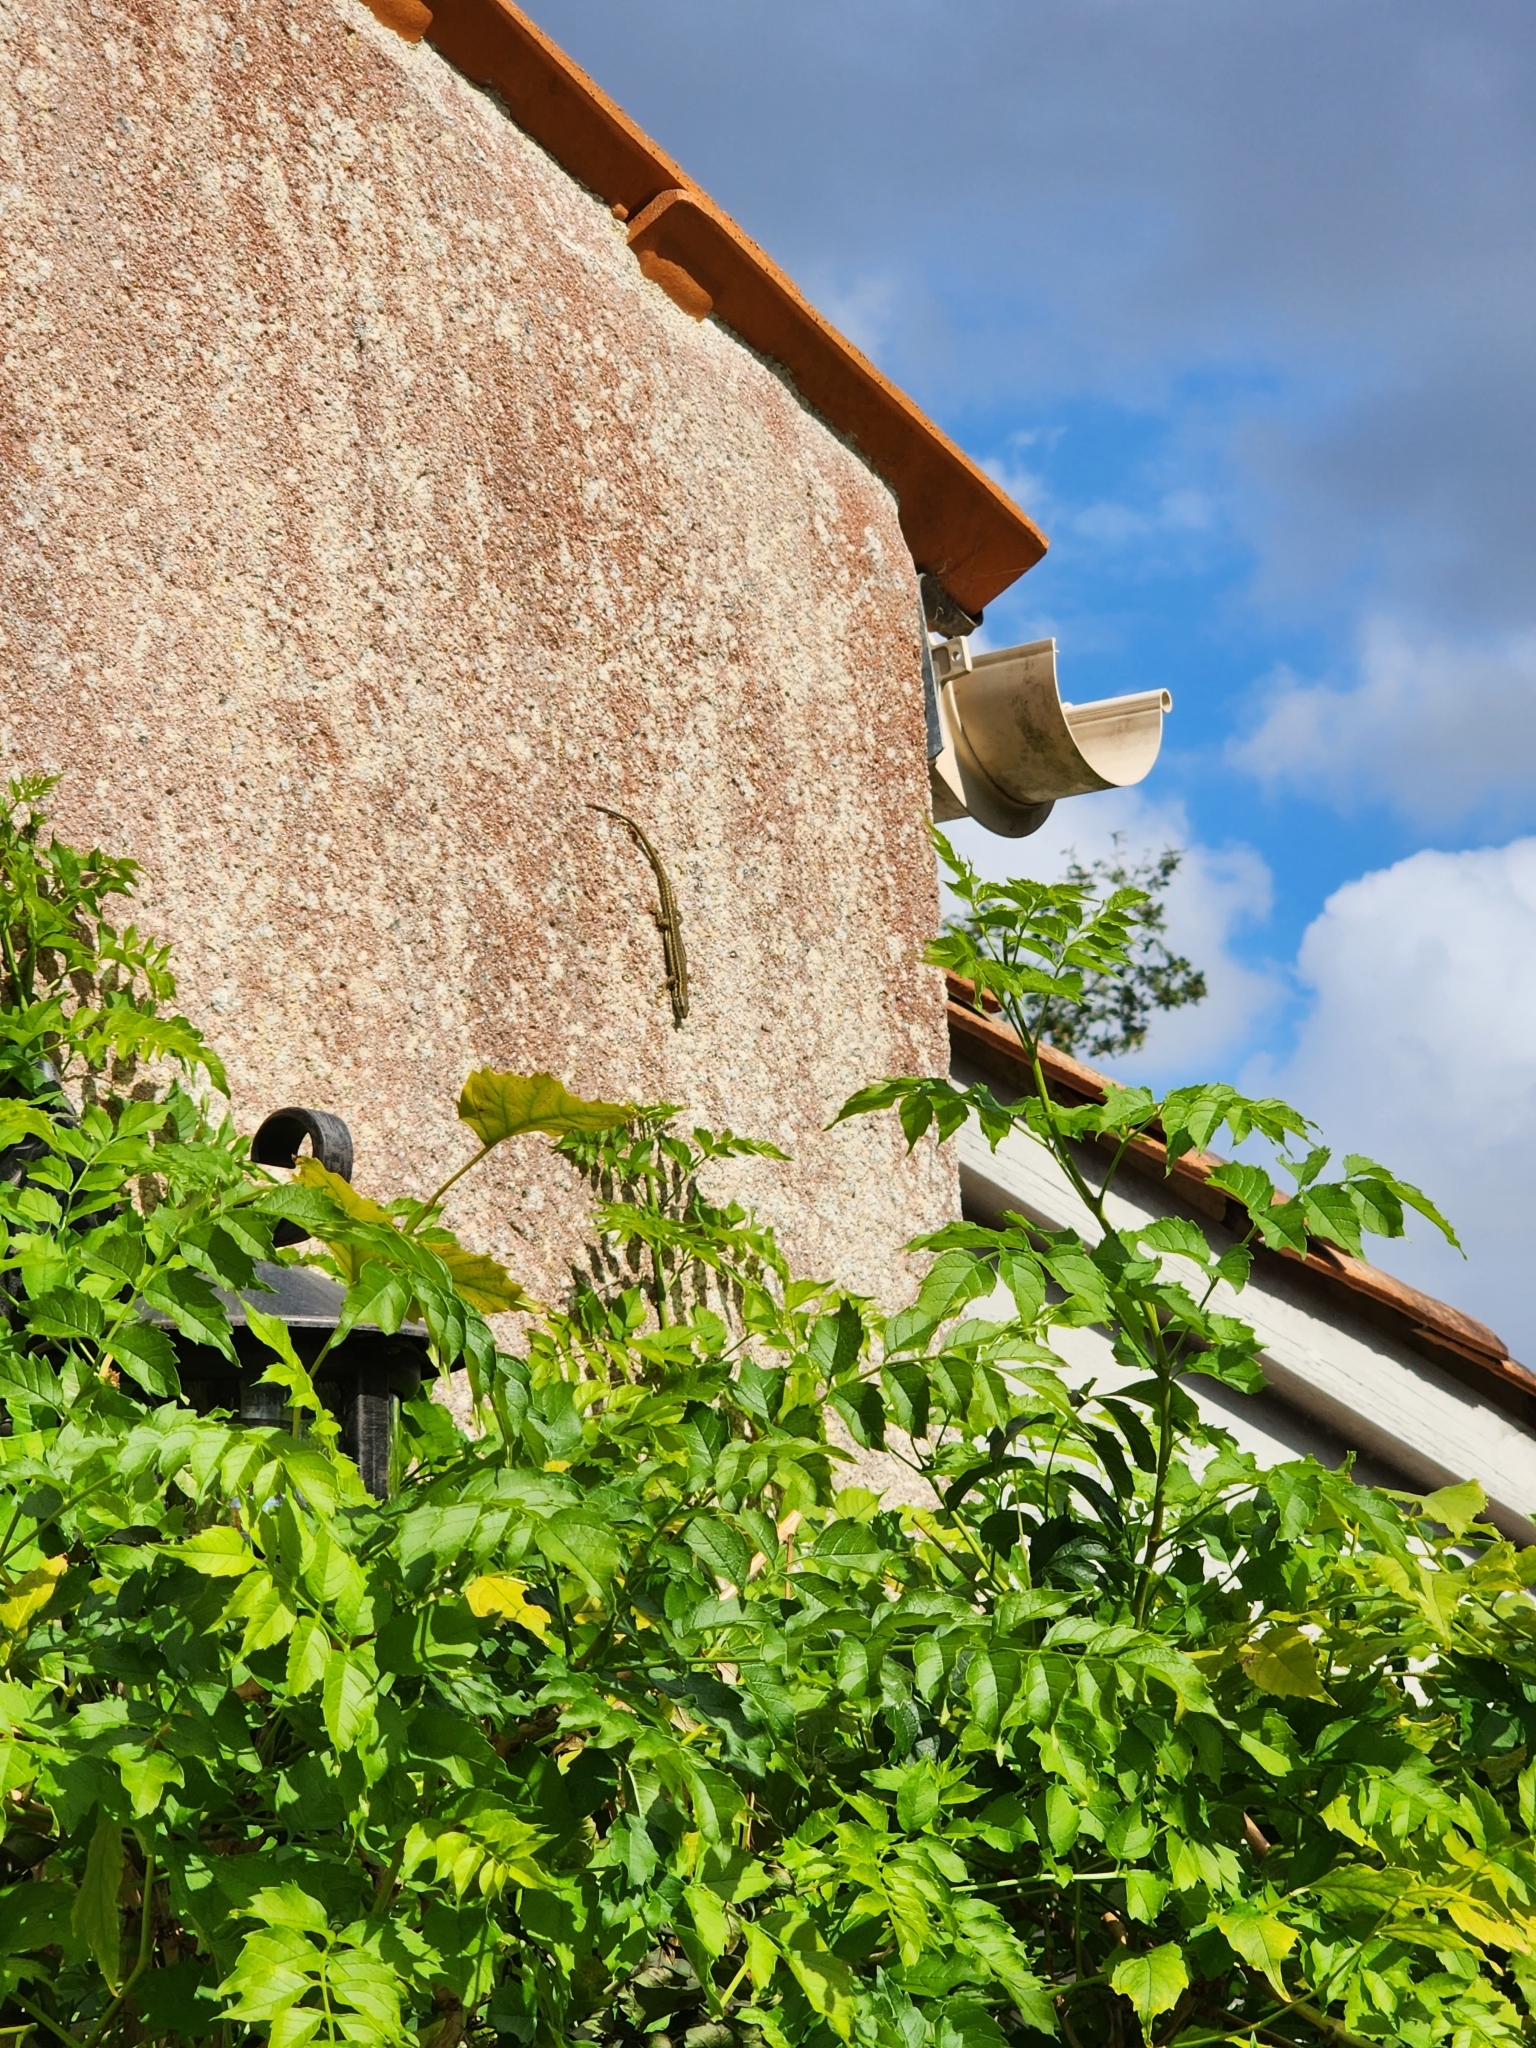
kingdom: Animalia
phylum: Chordata
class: Squamata
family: Lacertidae
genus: Podarcis
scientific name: Podarcis muralis
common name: Common wall lizard
